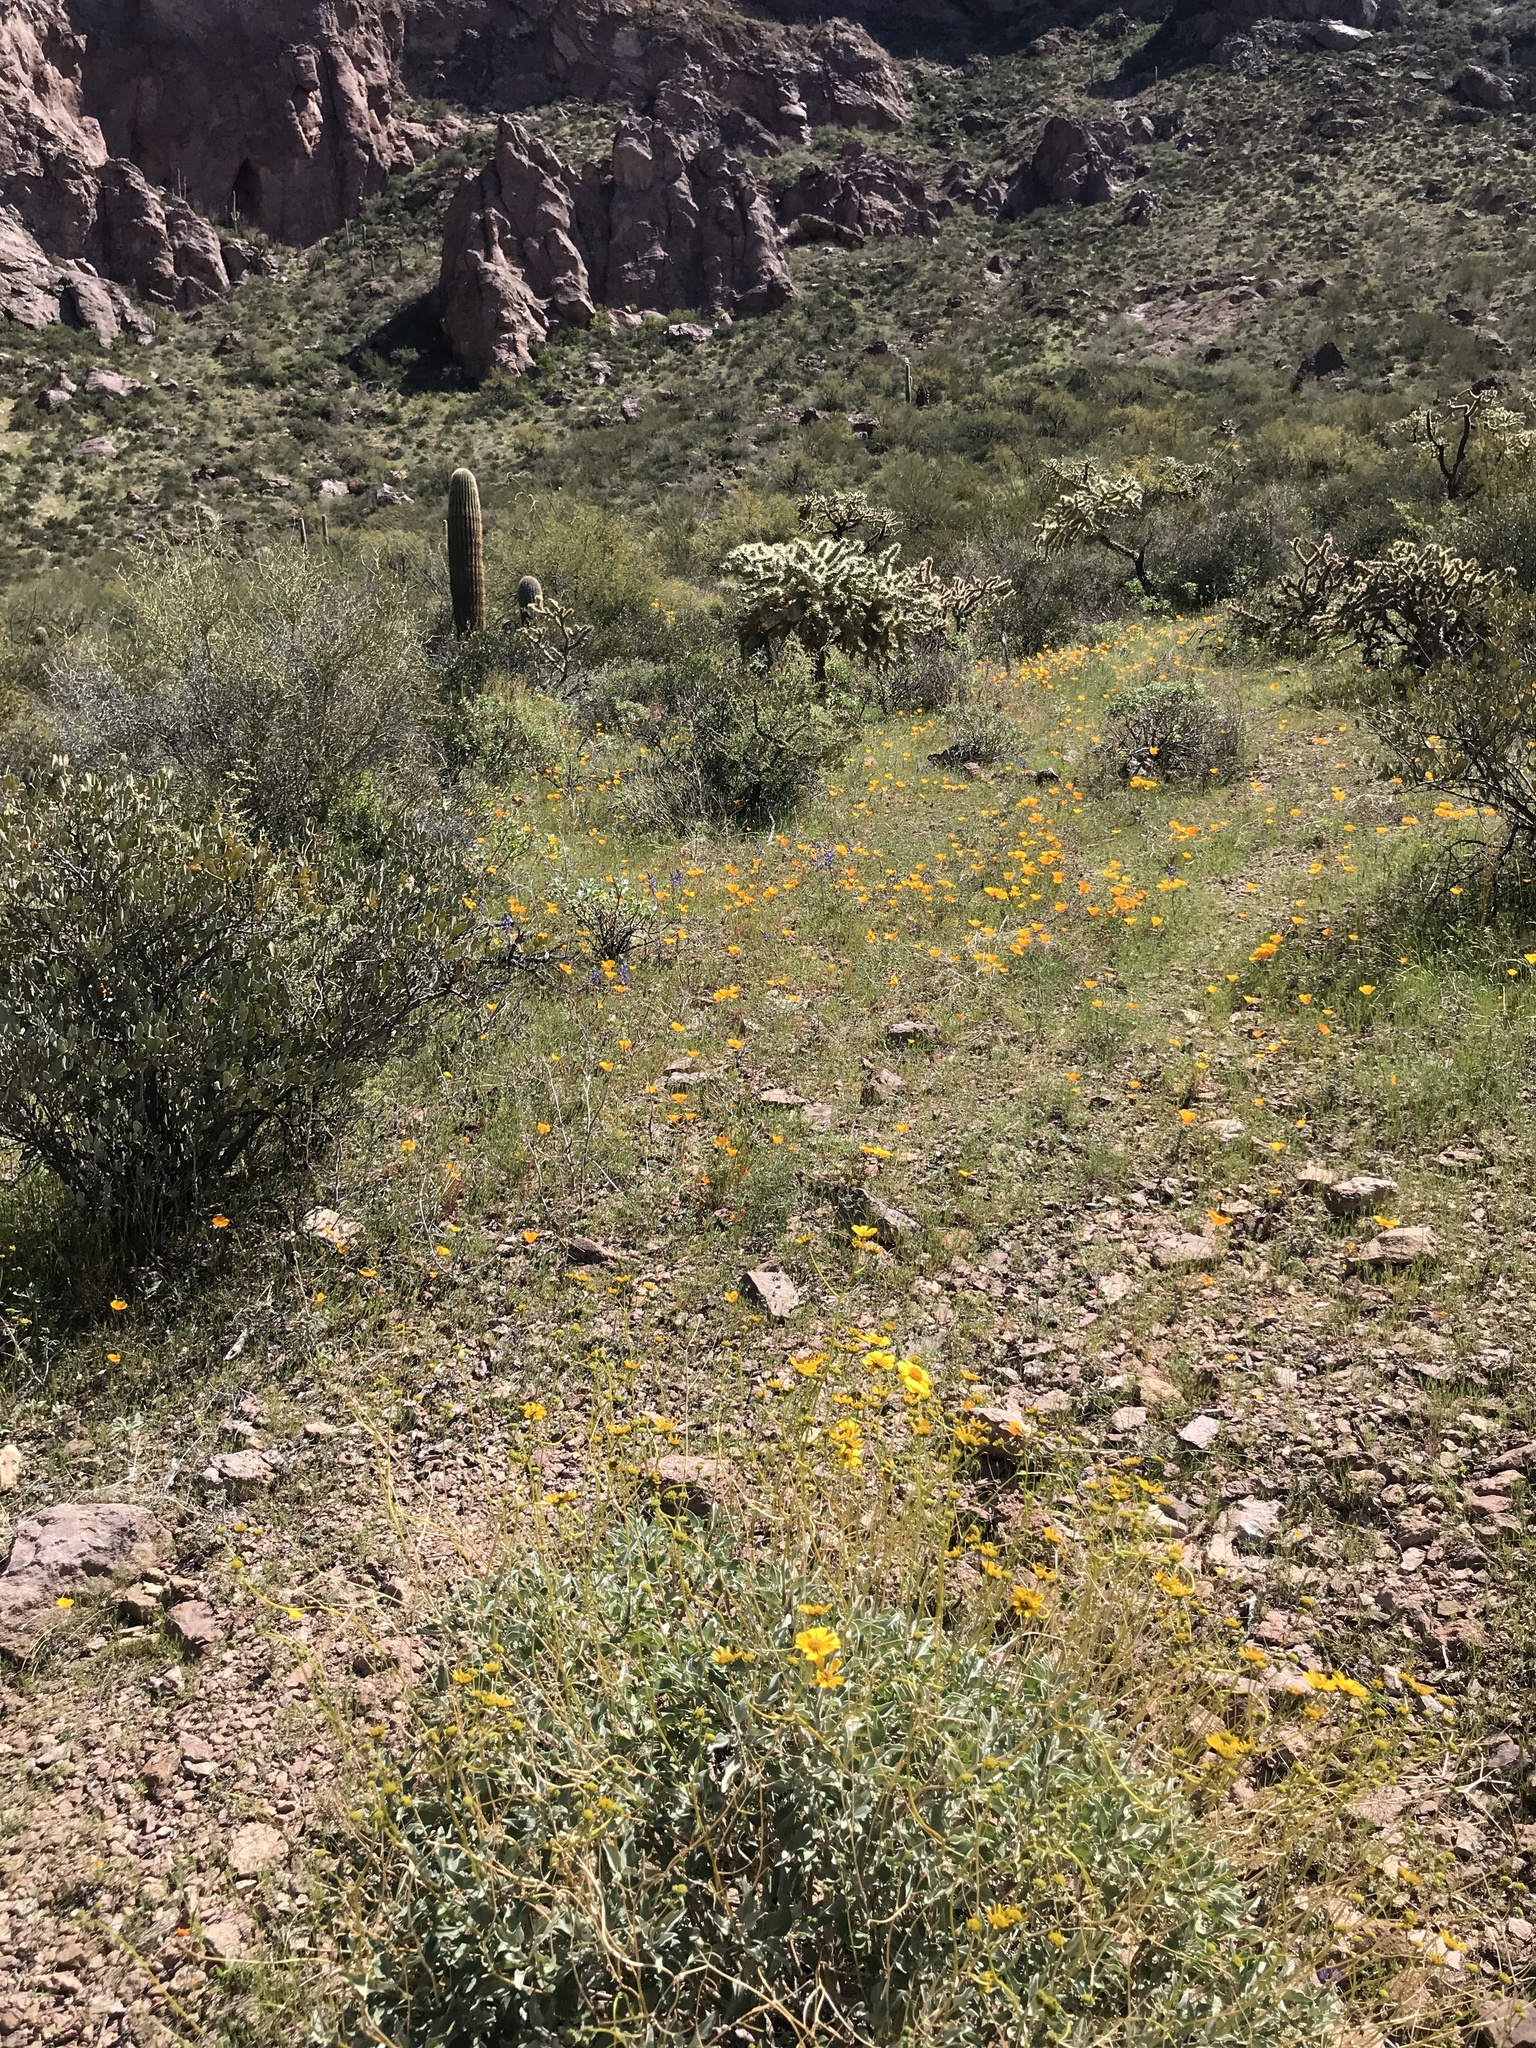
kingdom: Plantae
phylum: Tracheophyta
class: Magnoliopsida
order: Ranunculales
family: Papaveraceae
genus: Eschscholzia
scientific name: Eschscholzia californica
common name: California poppy
